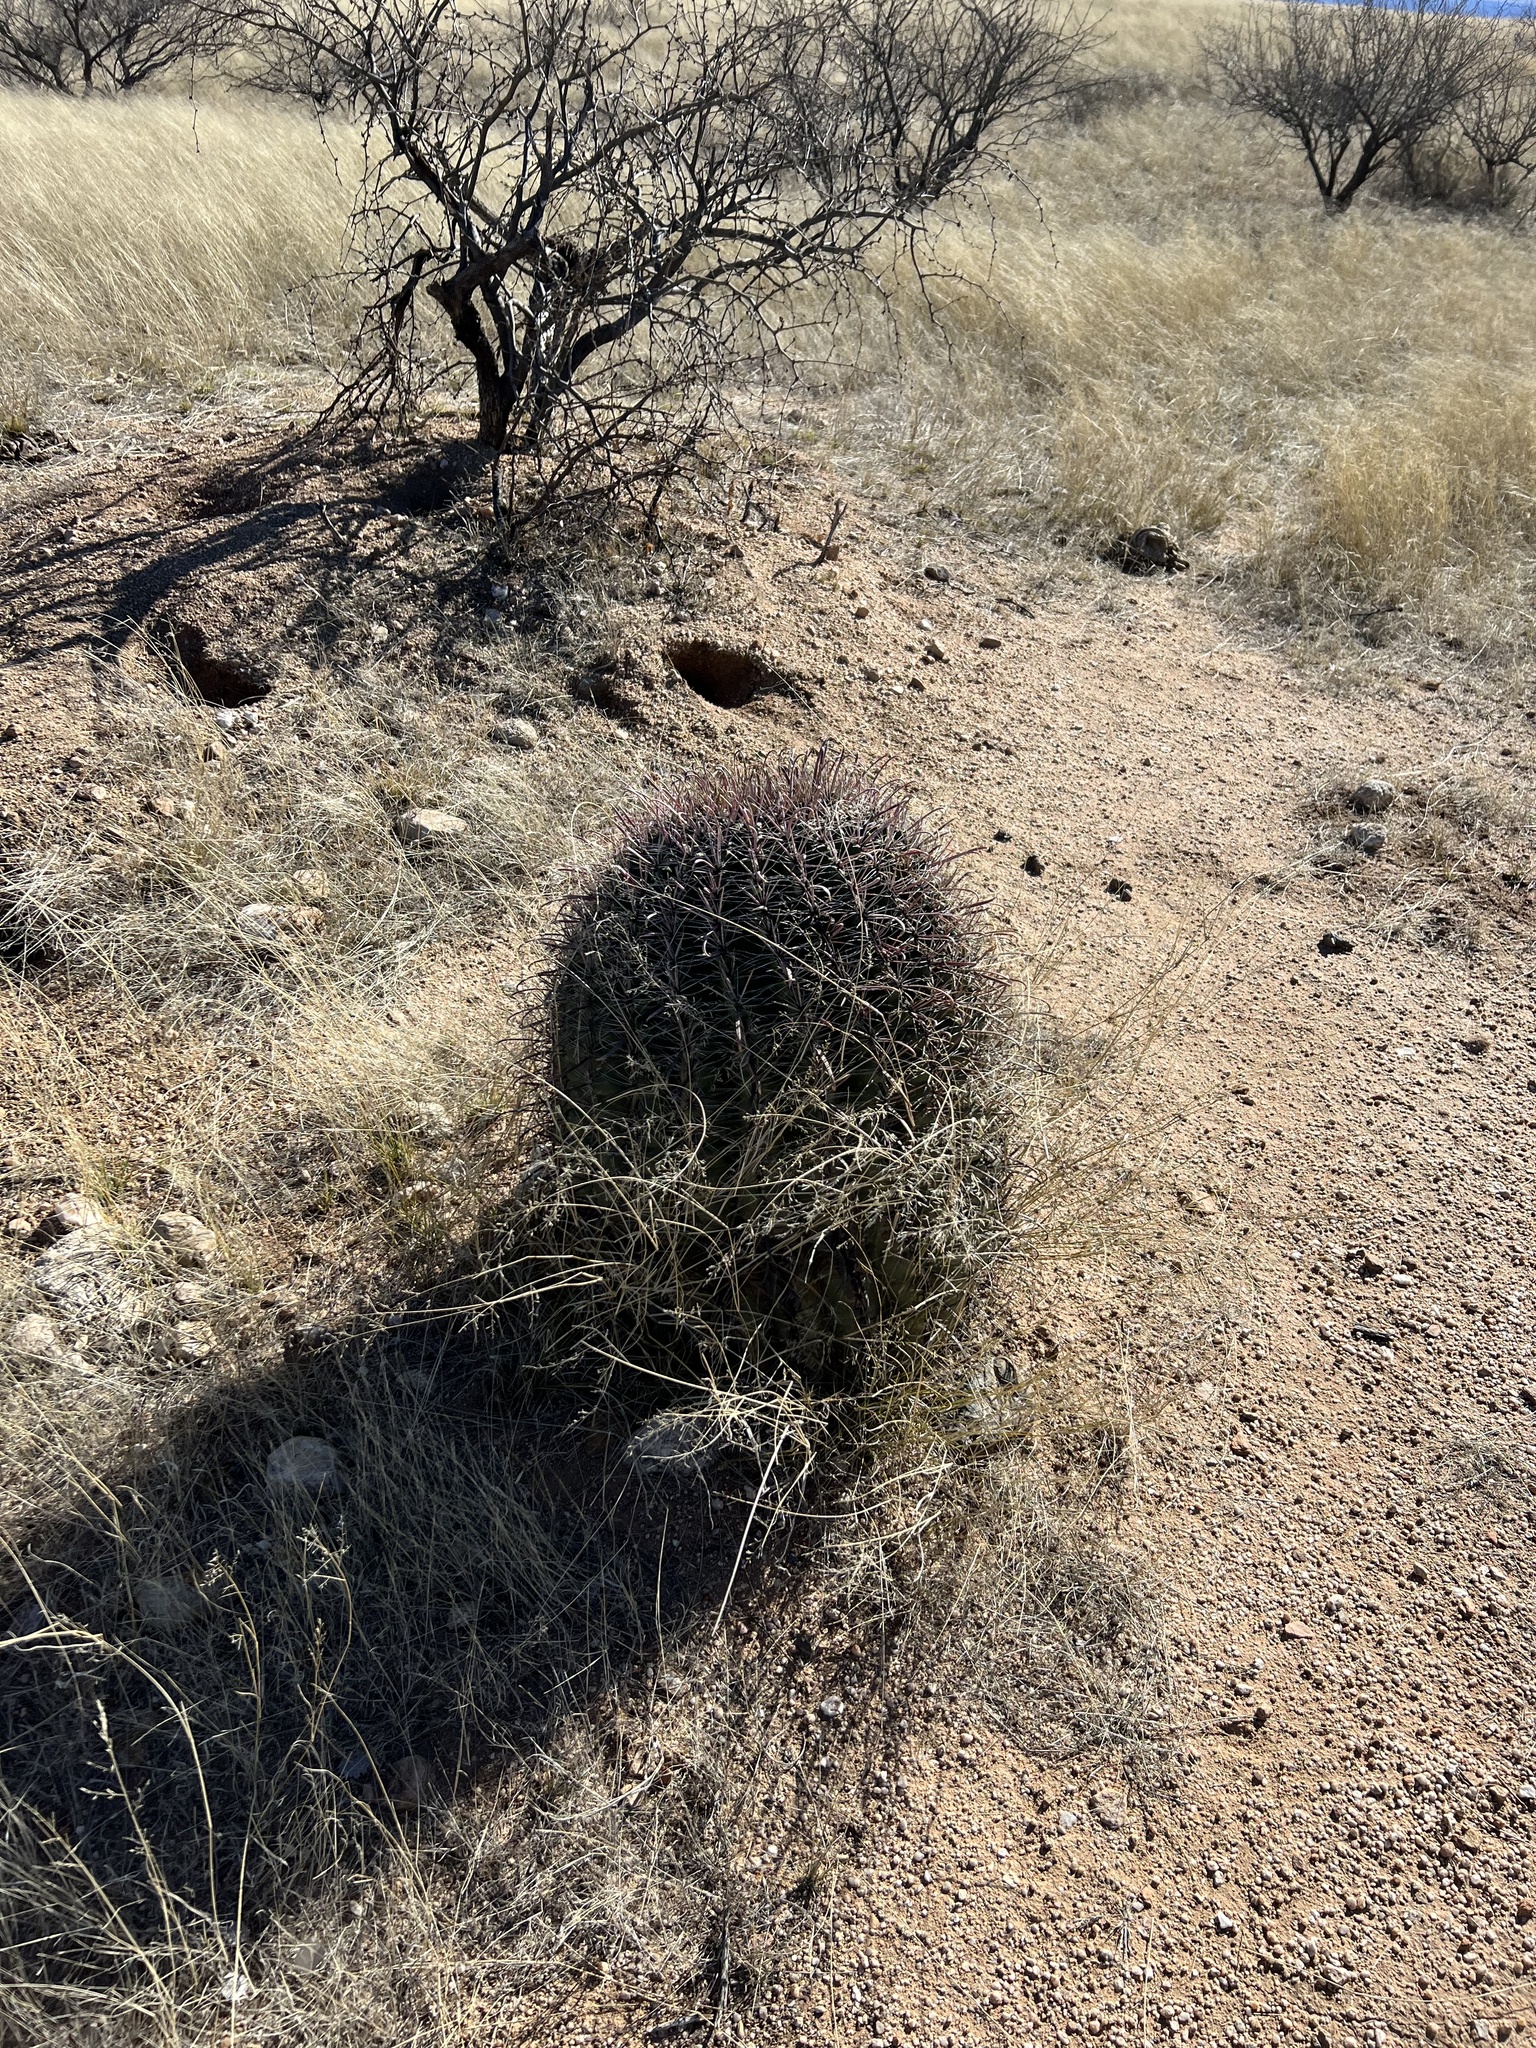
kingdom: Plantae
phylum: Tracheophyta
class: Magnoliopsida
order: Caryophyllales
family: Cactaceae
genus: Ferocactus
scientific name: Ferocactus wislizeni
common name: Candy barrel cactus
